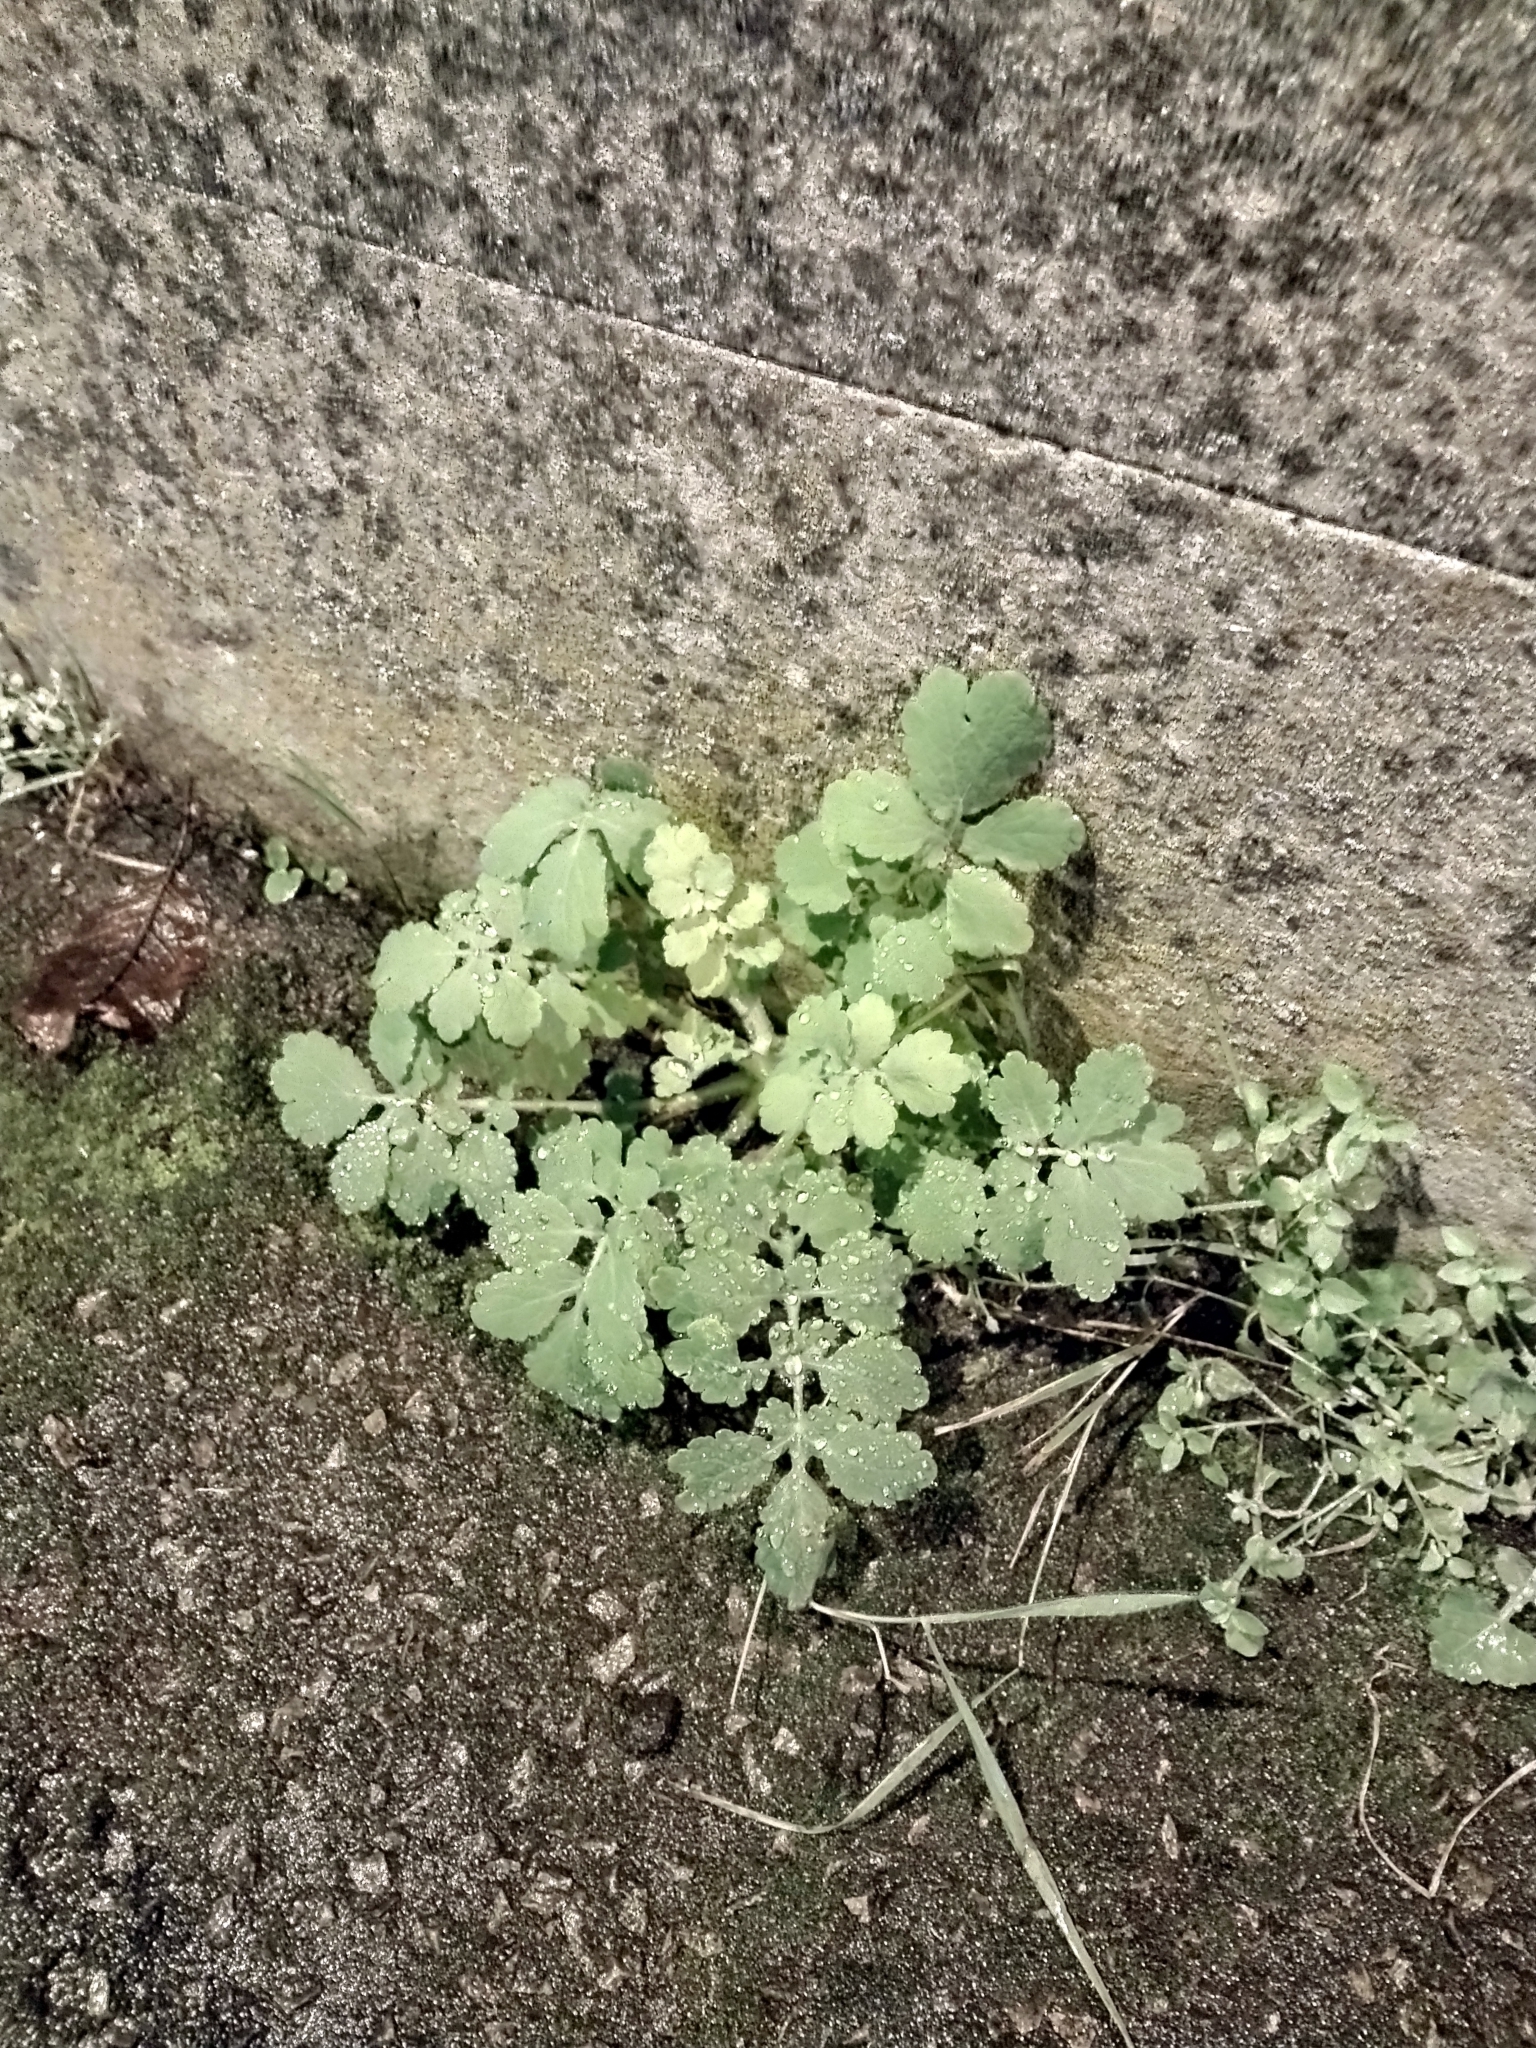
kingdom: Plantae
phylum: Tracheophyta
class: Magnoliopsida
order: Ranunculales
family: Papaveraceae
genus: Chelidonium
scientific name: Chelidonium majus
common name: Greater celandine
